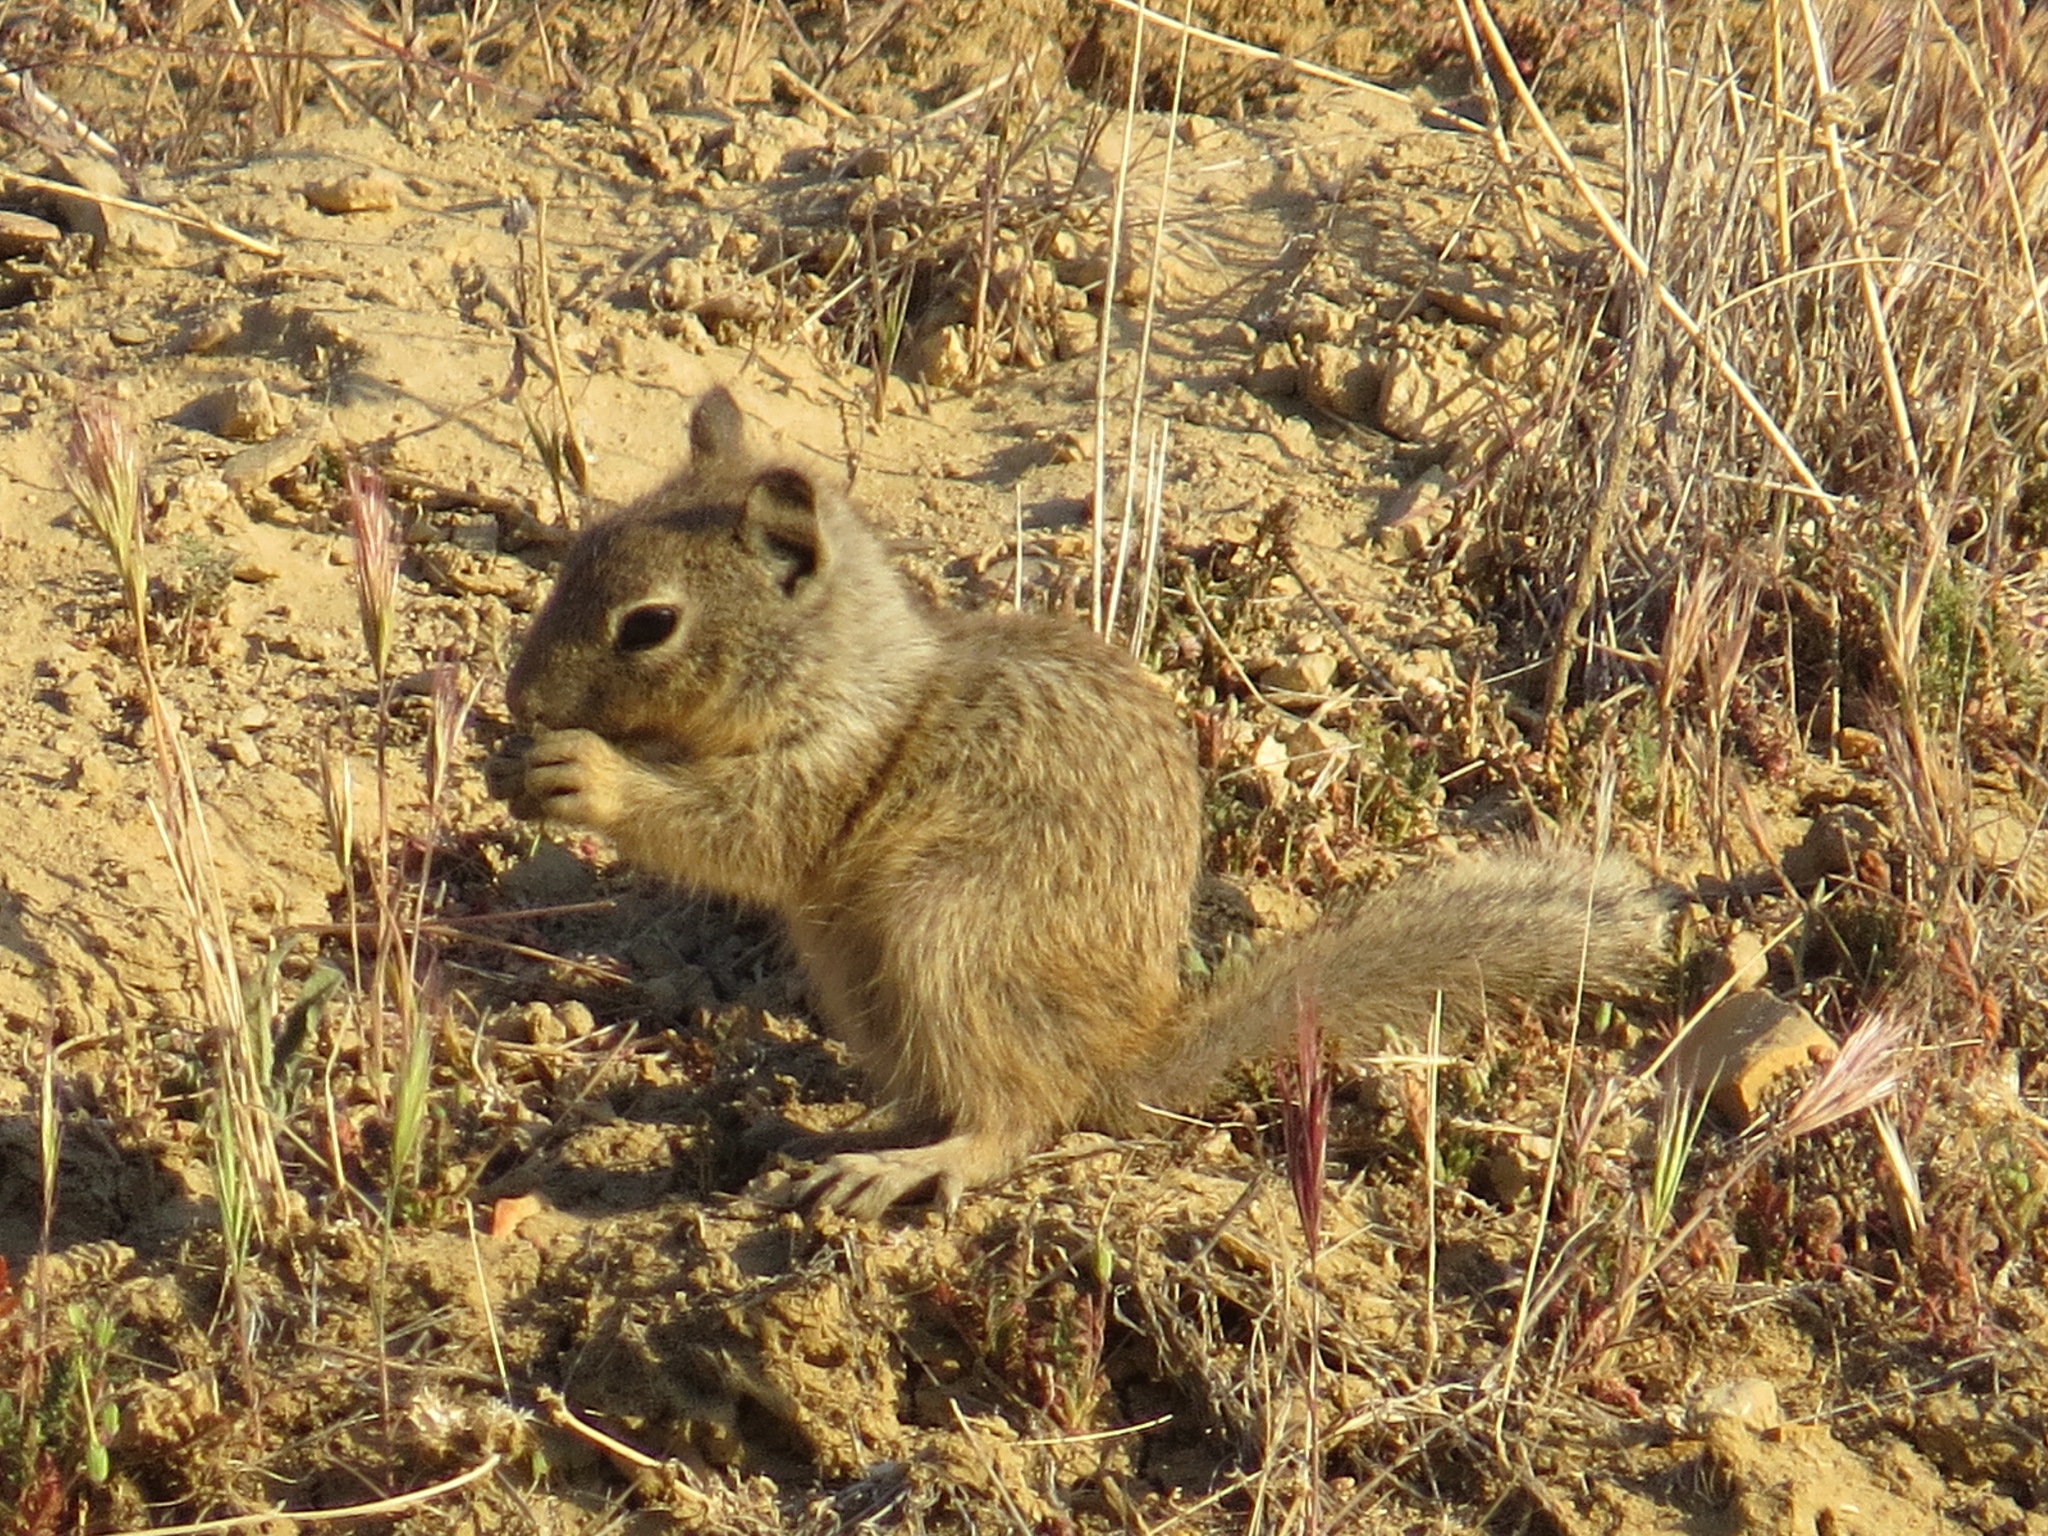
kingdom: Animalia
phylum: Chordata
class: Mammalia
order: Rodentia
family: Sciuridae
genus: Otospermophilus
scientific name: Otospermophilus beecheyi
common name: California ground squirrel
